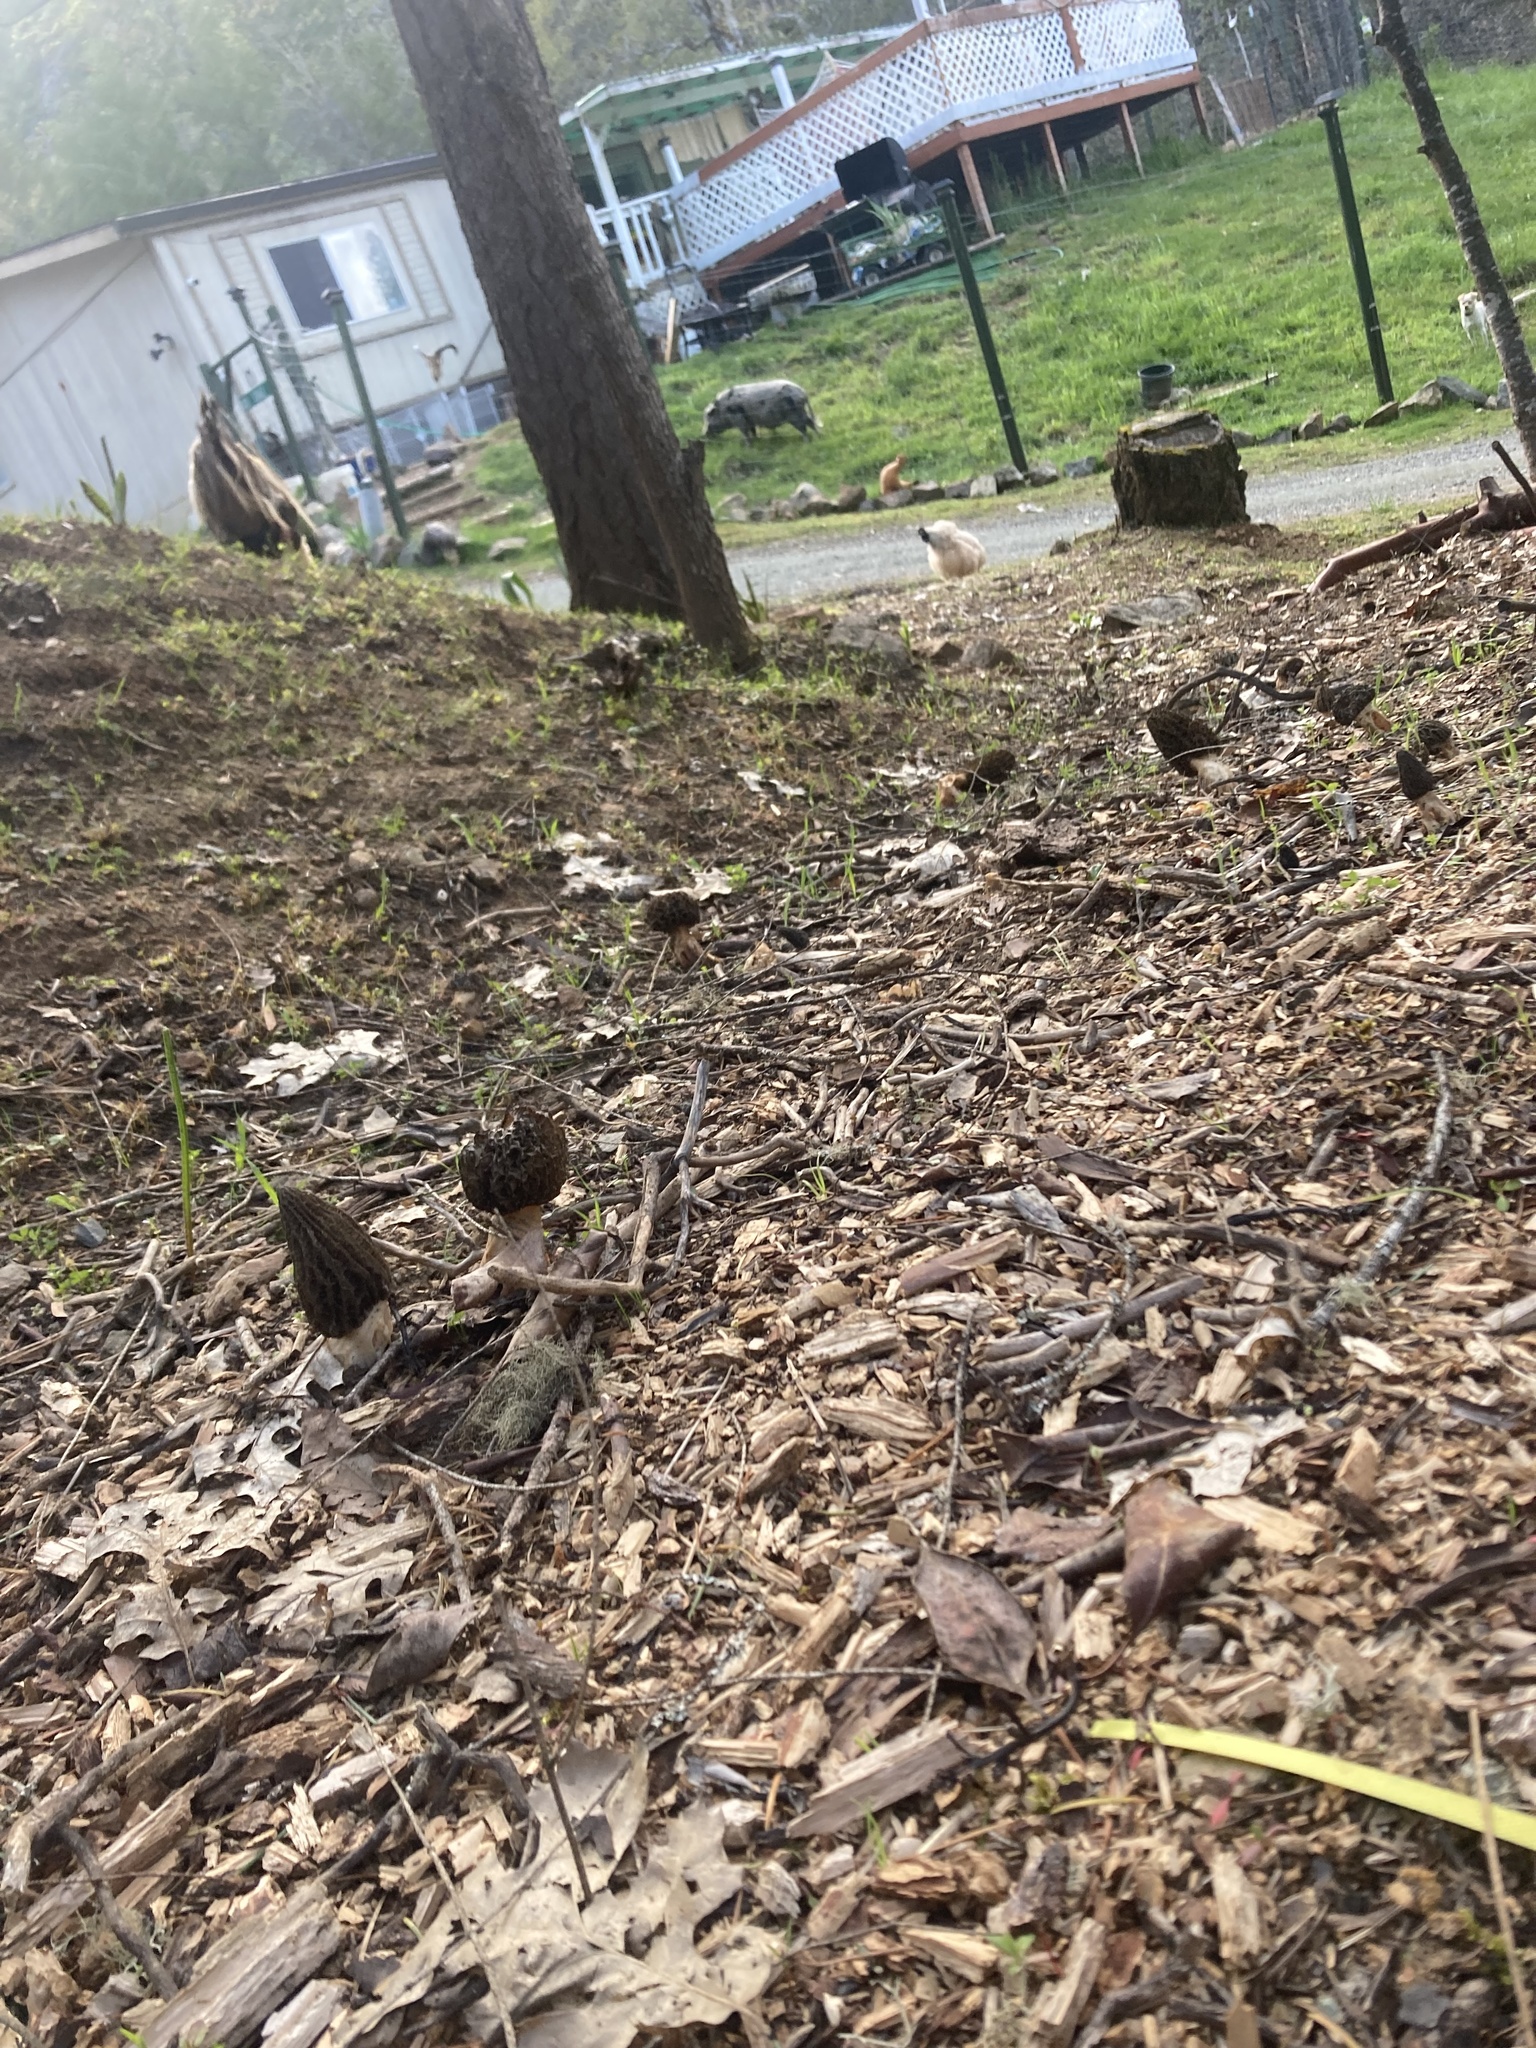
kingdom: Fungi
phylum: Ascomycota
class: Pezizomycetes
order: Pezizales
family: Morchellaceae
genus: Morchella
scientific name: Morchella importuna
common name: Landscaping black morel
